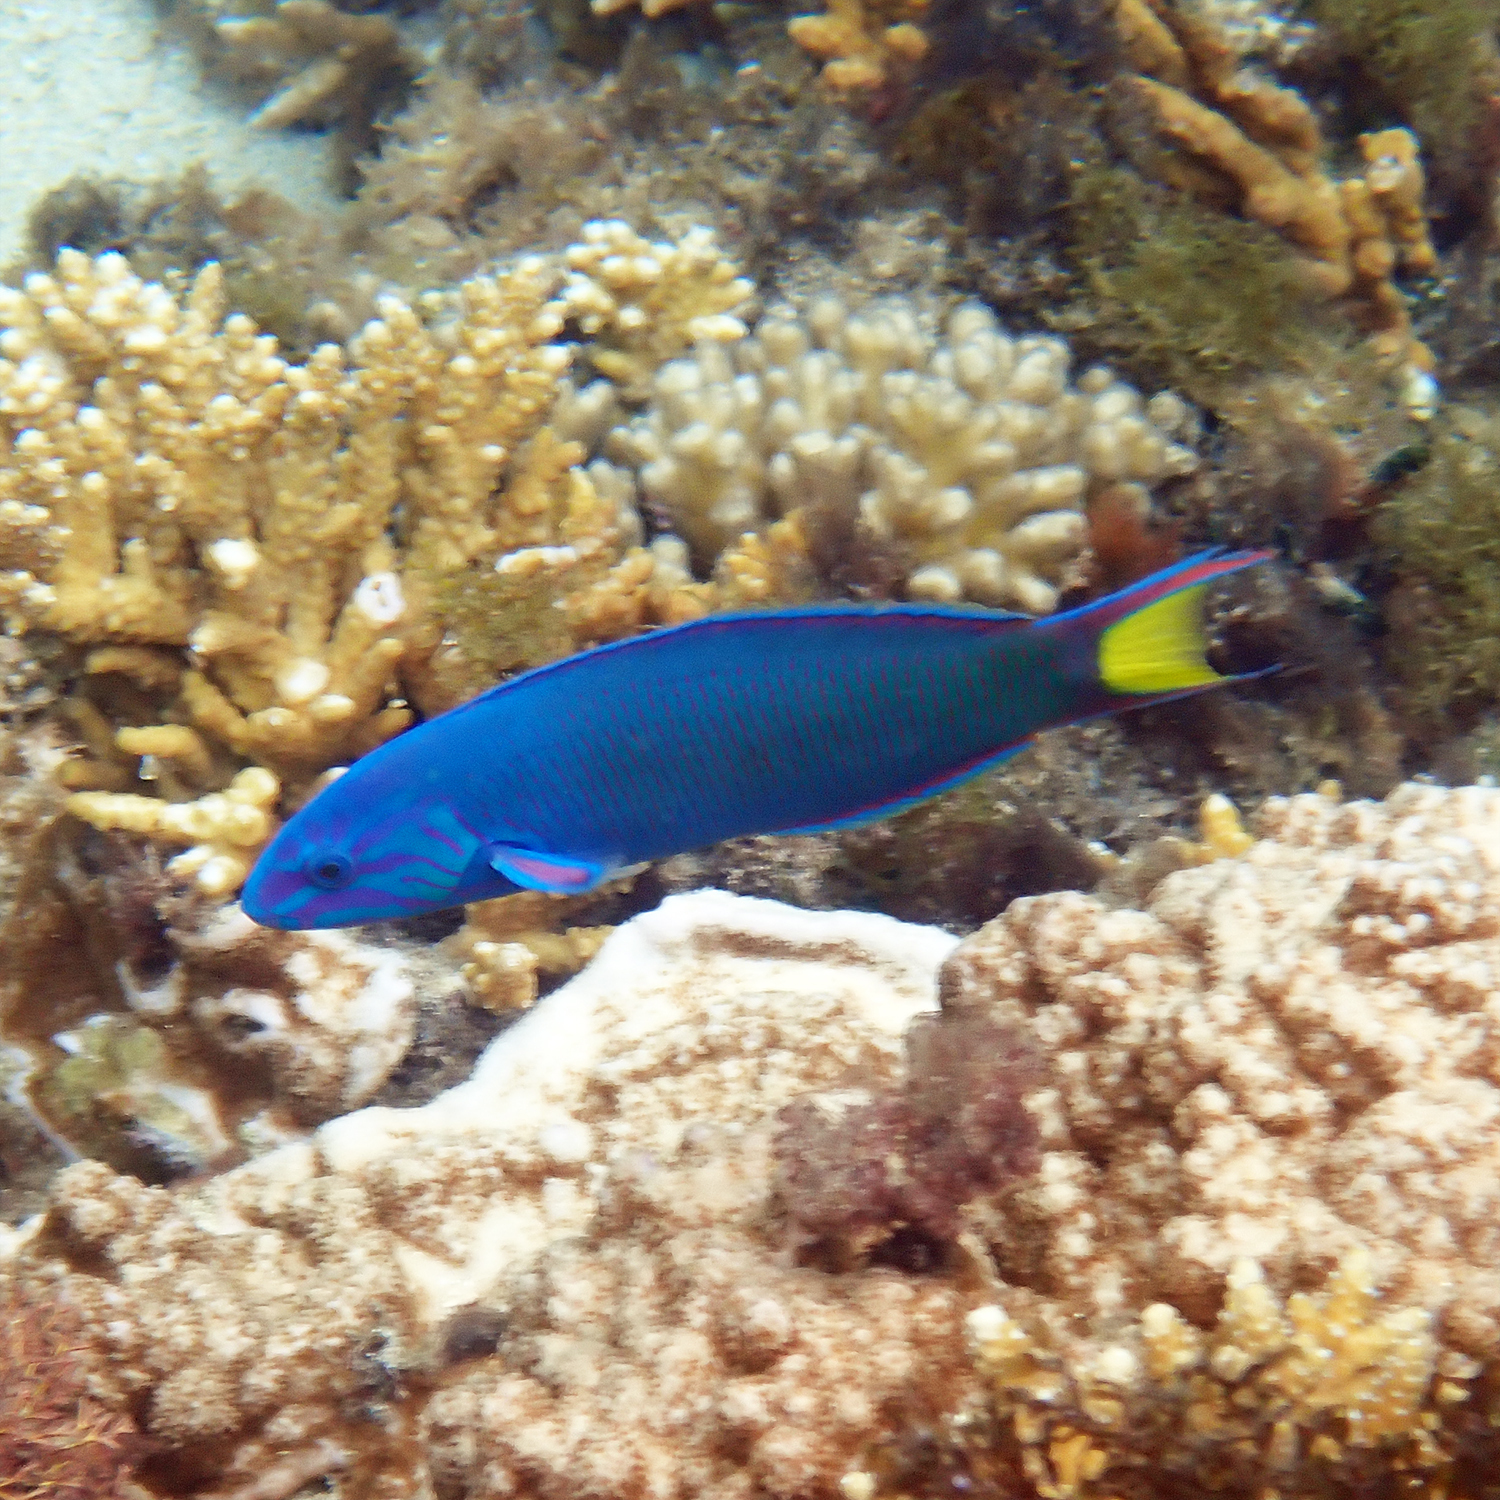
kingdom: Animalia
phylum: Chordata
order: Perciformes
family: Labridae
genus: Thalassoma
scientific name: Thalassoma lunare
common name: Blue wrasse
